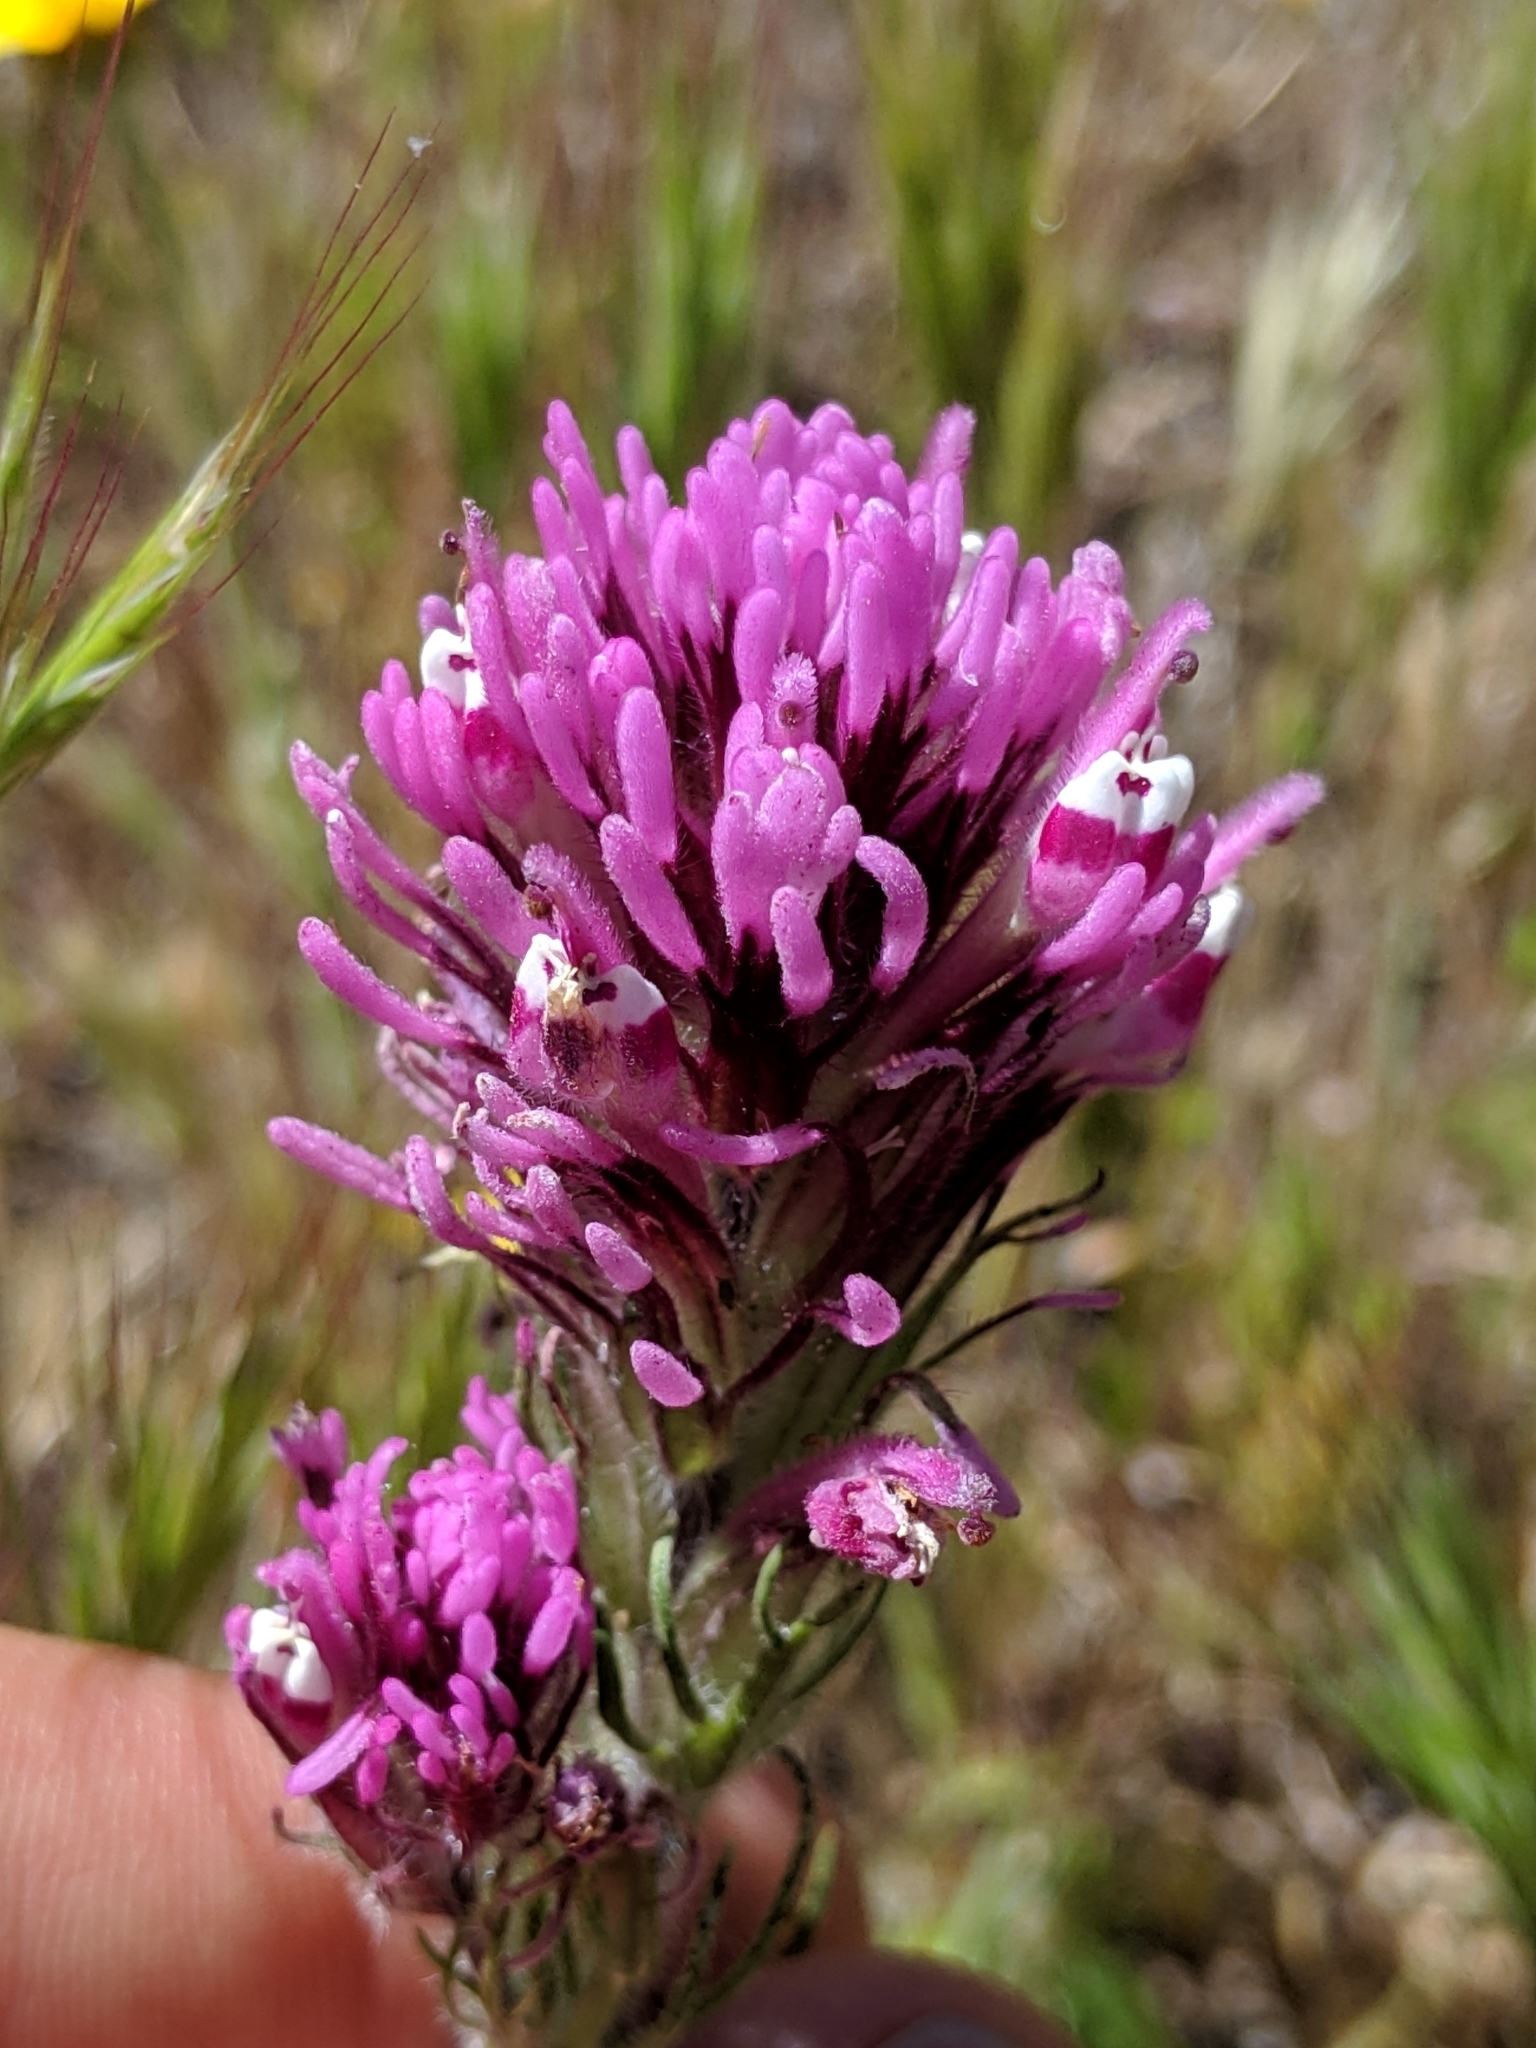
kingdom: Plantae
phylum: Tracheophyta
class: Magnoliopsida
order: Lamiales
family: Orobanchaceae
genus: Castilleja
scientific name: Castilleja exserta
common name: Purple owl-clover
